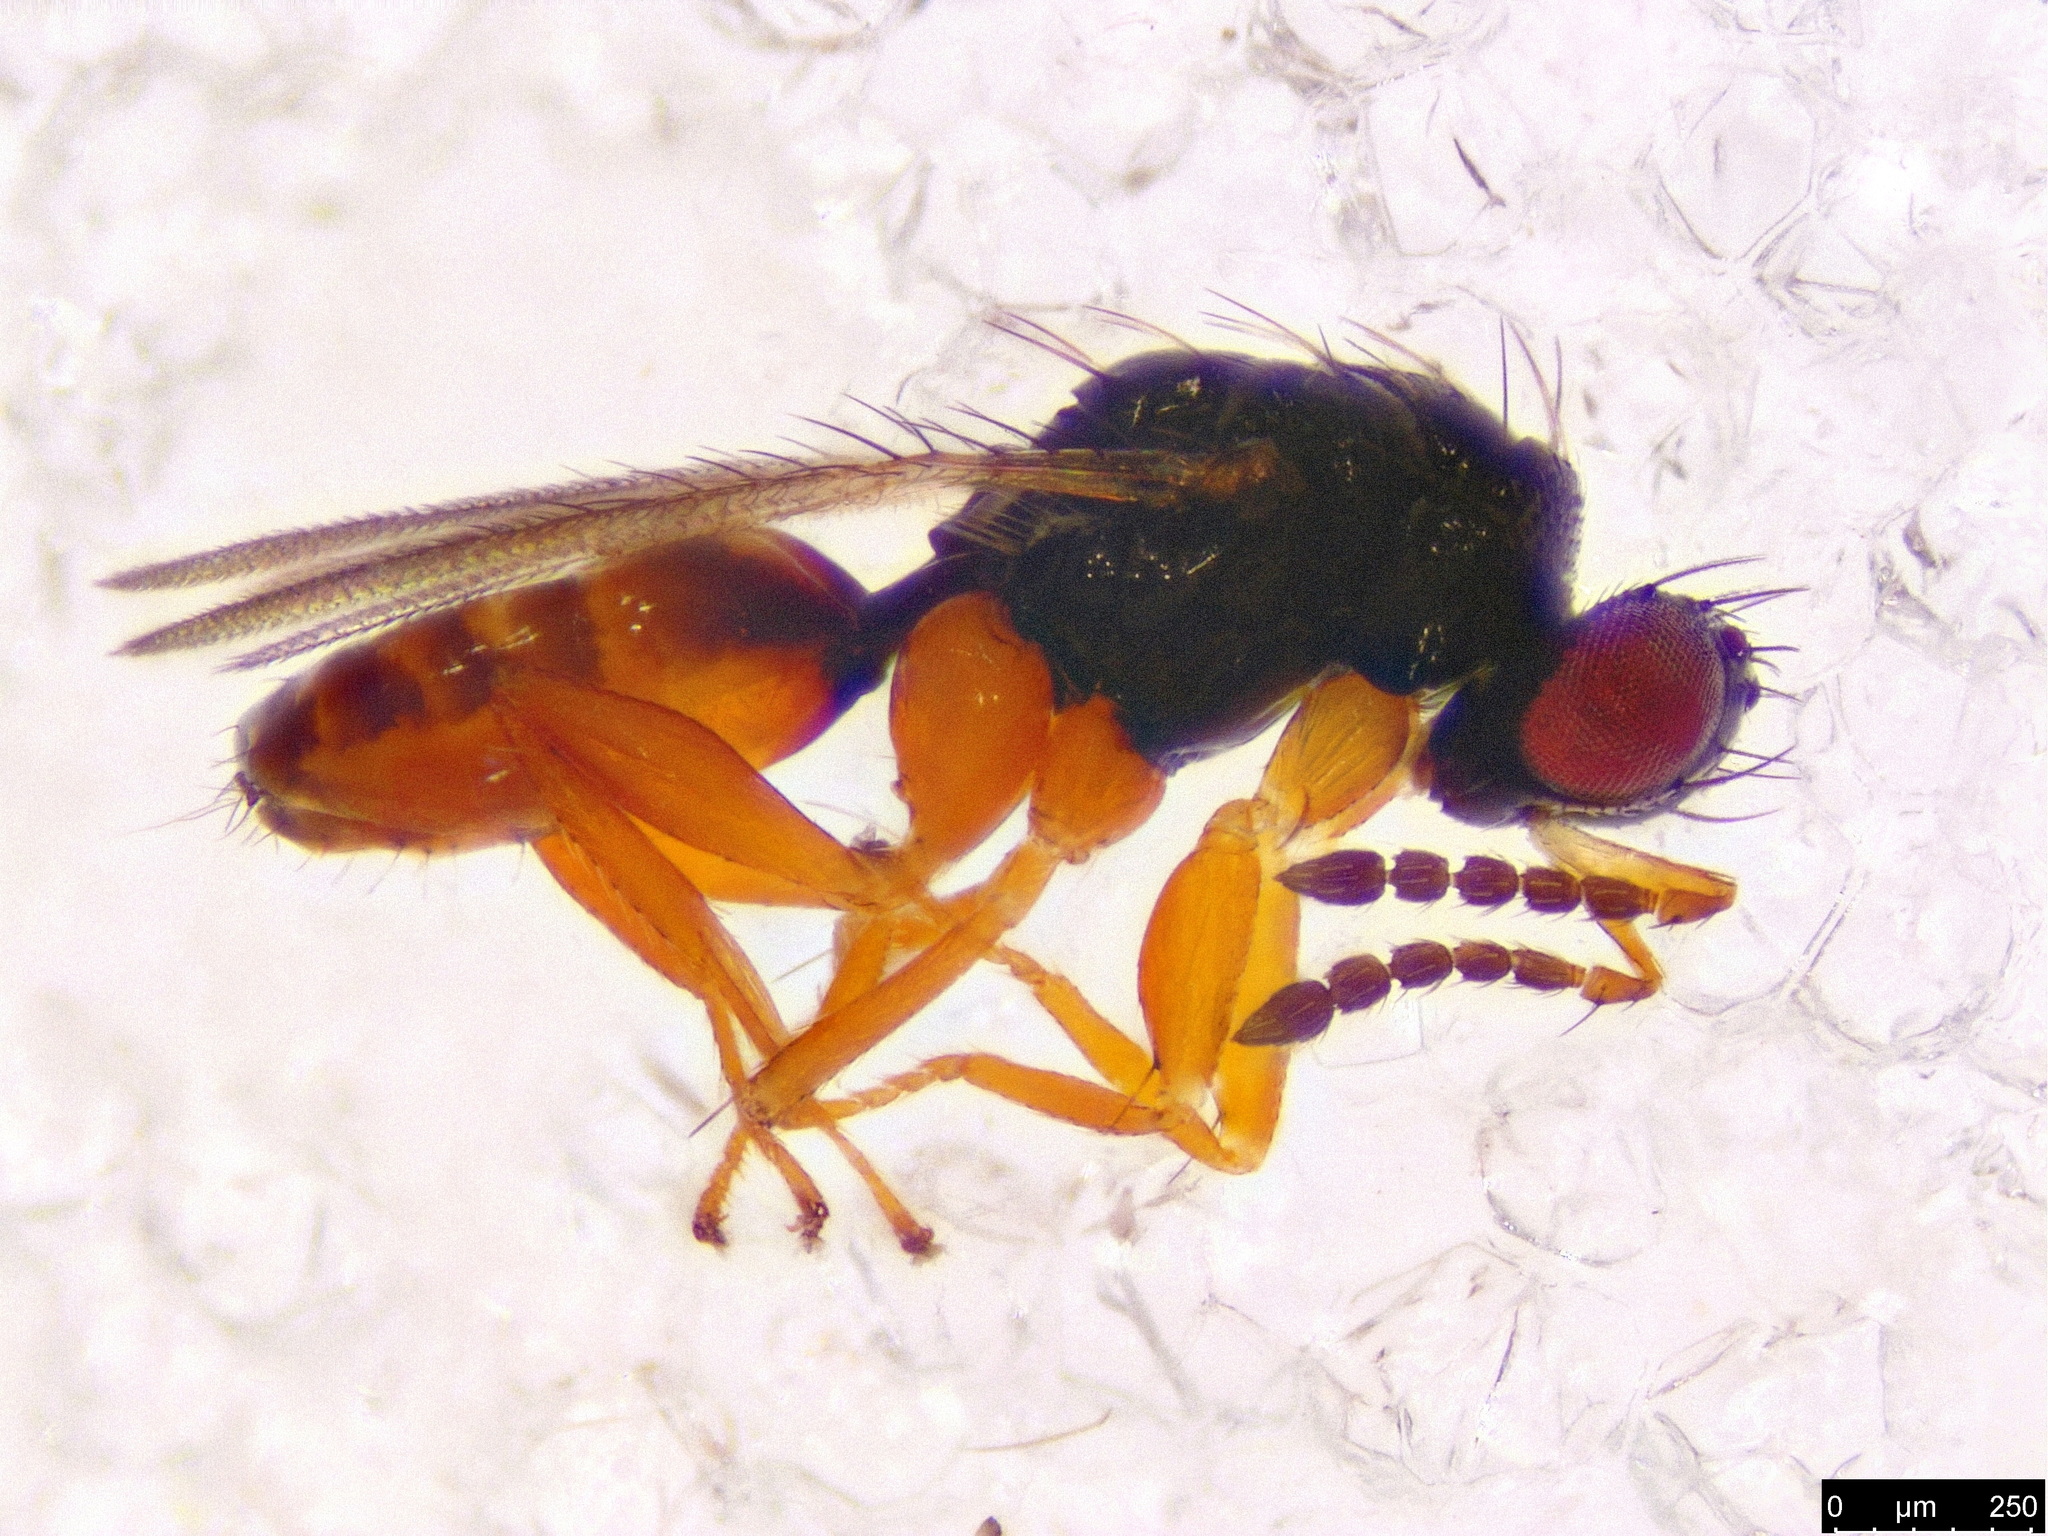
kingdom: Animalia
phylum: Arthropoda
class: Insecta
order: Hymenoptera
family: Eulophidae
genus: Euplectrus
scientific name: Euplectrus
